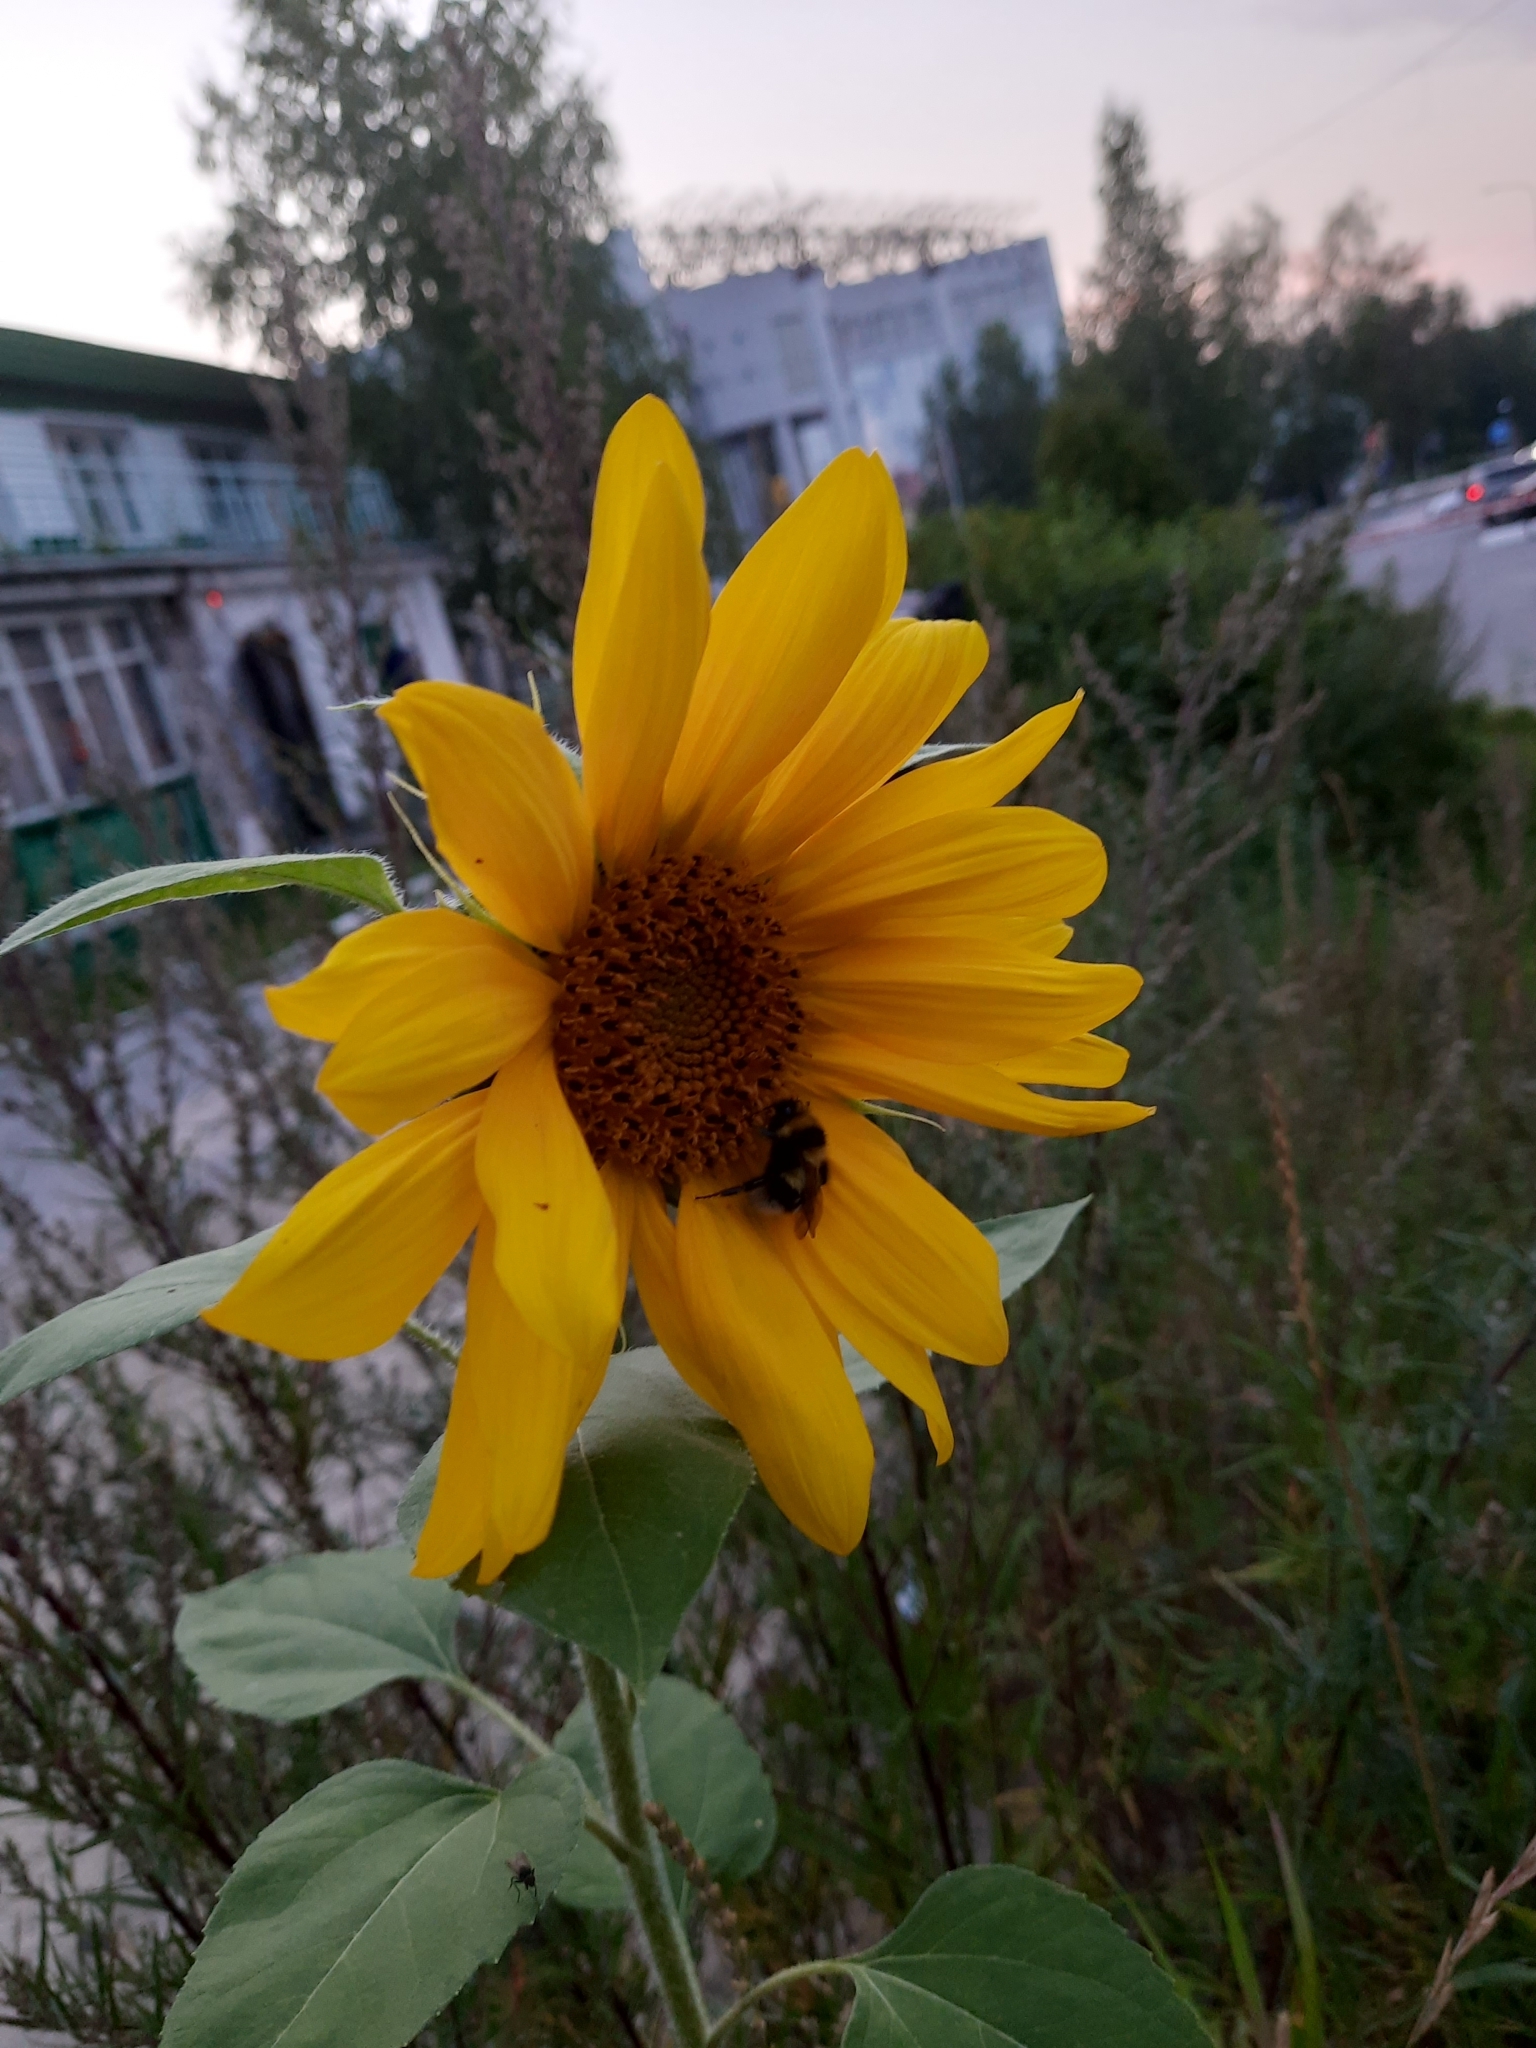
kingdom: Plantae
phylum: Tracheophyta
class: Magnoliopsida
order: Asterales
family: Asteraceae
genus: Helianthus
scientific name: Helianthus annuus
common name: Sunflower
